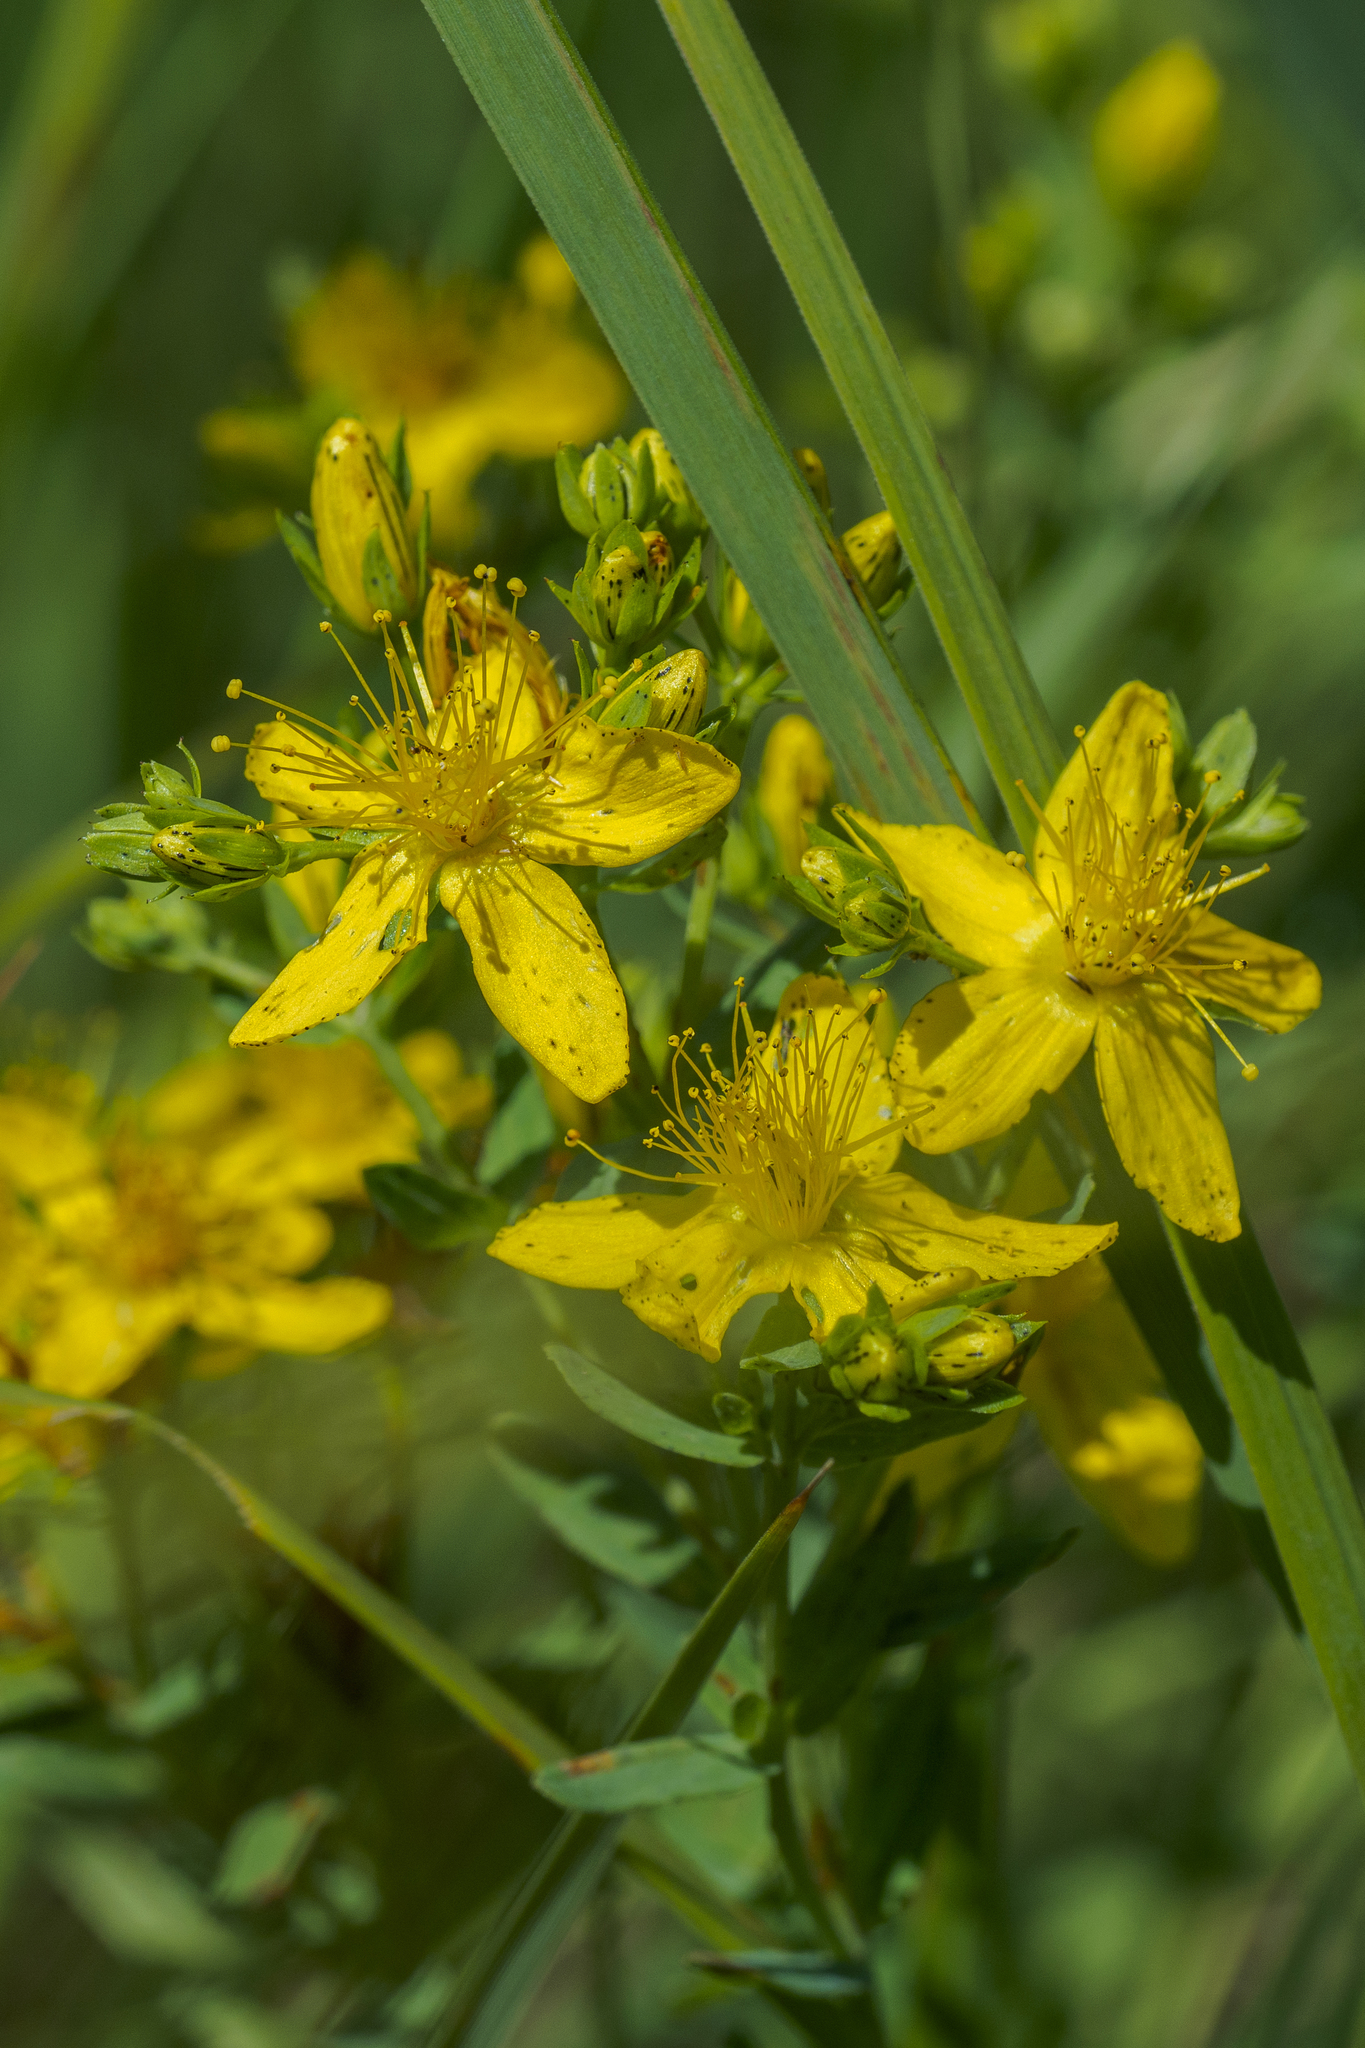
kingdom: Plantae
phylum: Tracheophyta
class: Magnoliopsida
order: Malpighiales
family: Hypericaceae
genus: Hypericum
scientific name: Hypericum perforatum
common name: Common st. johnswort
